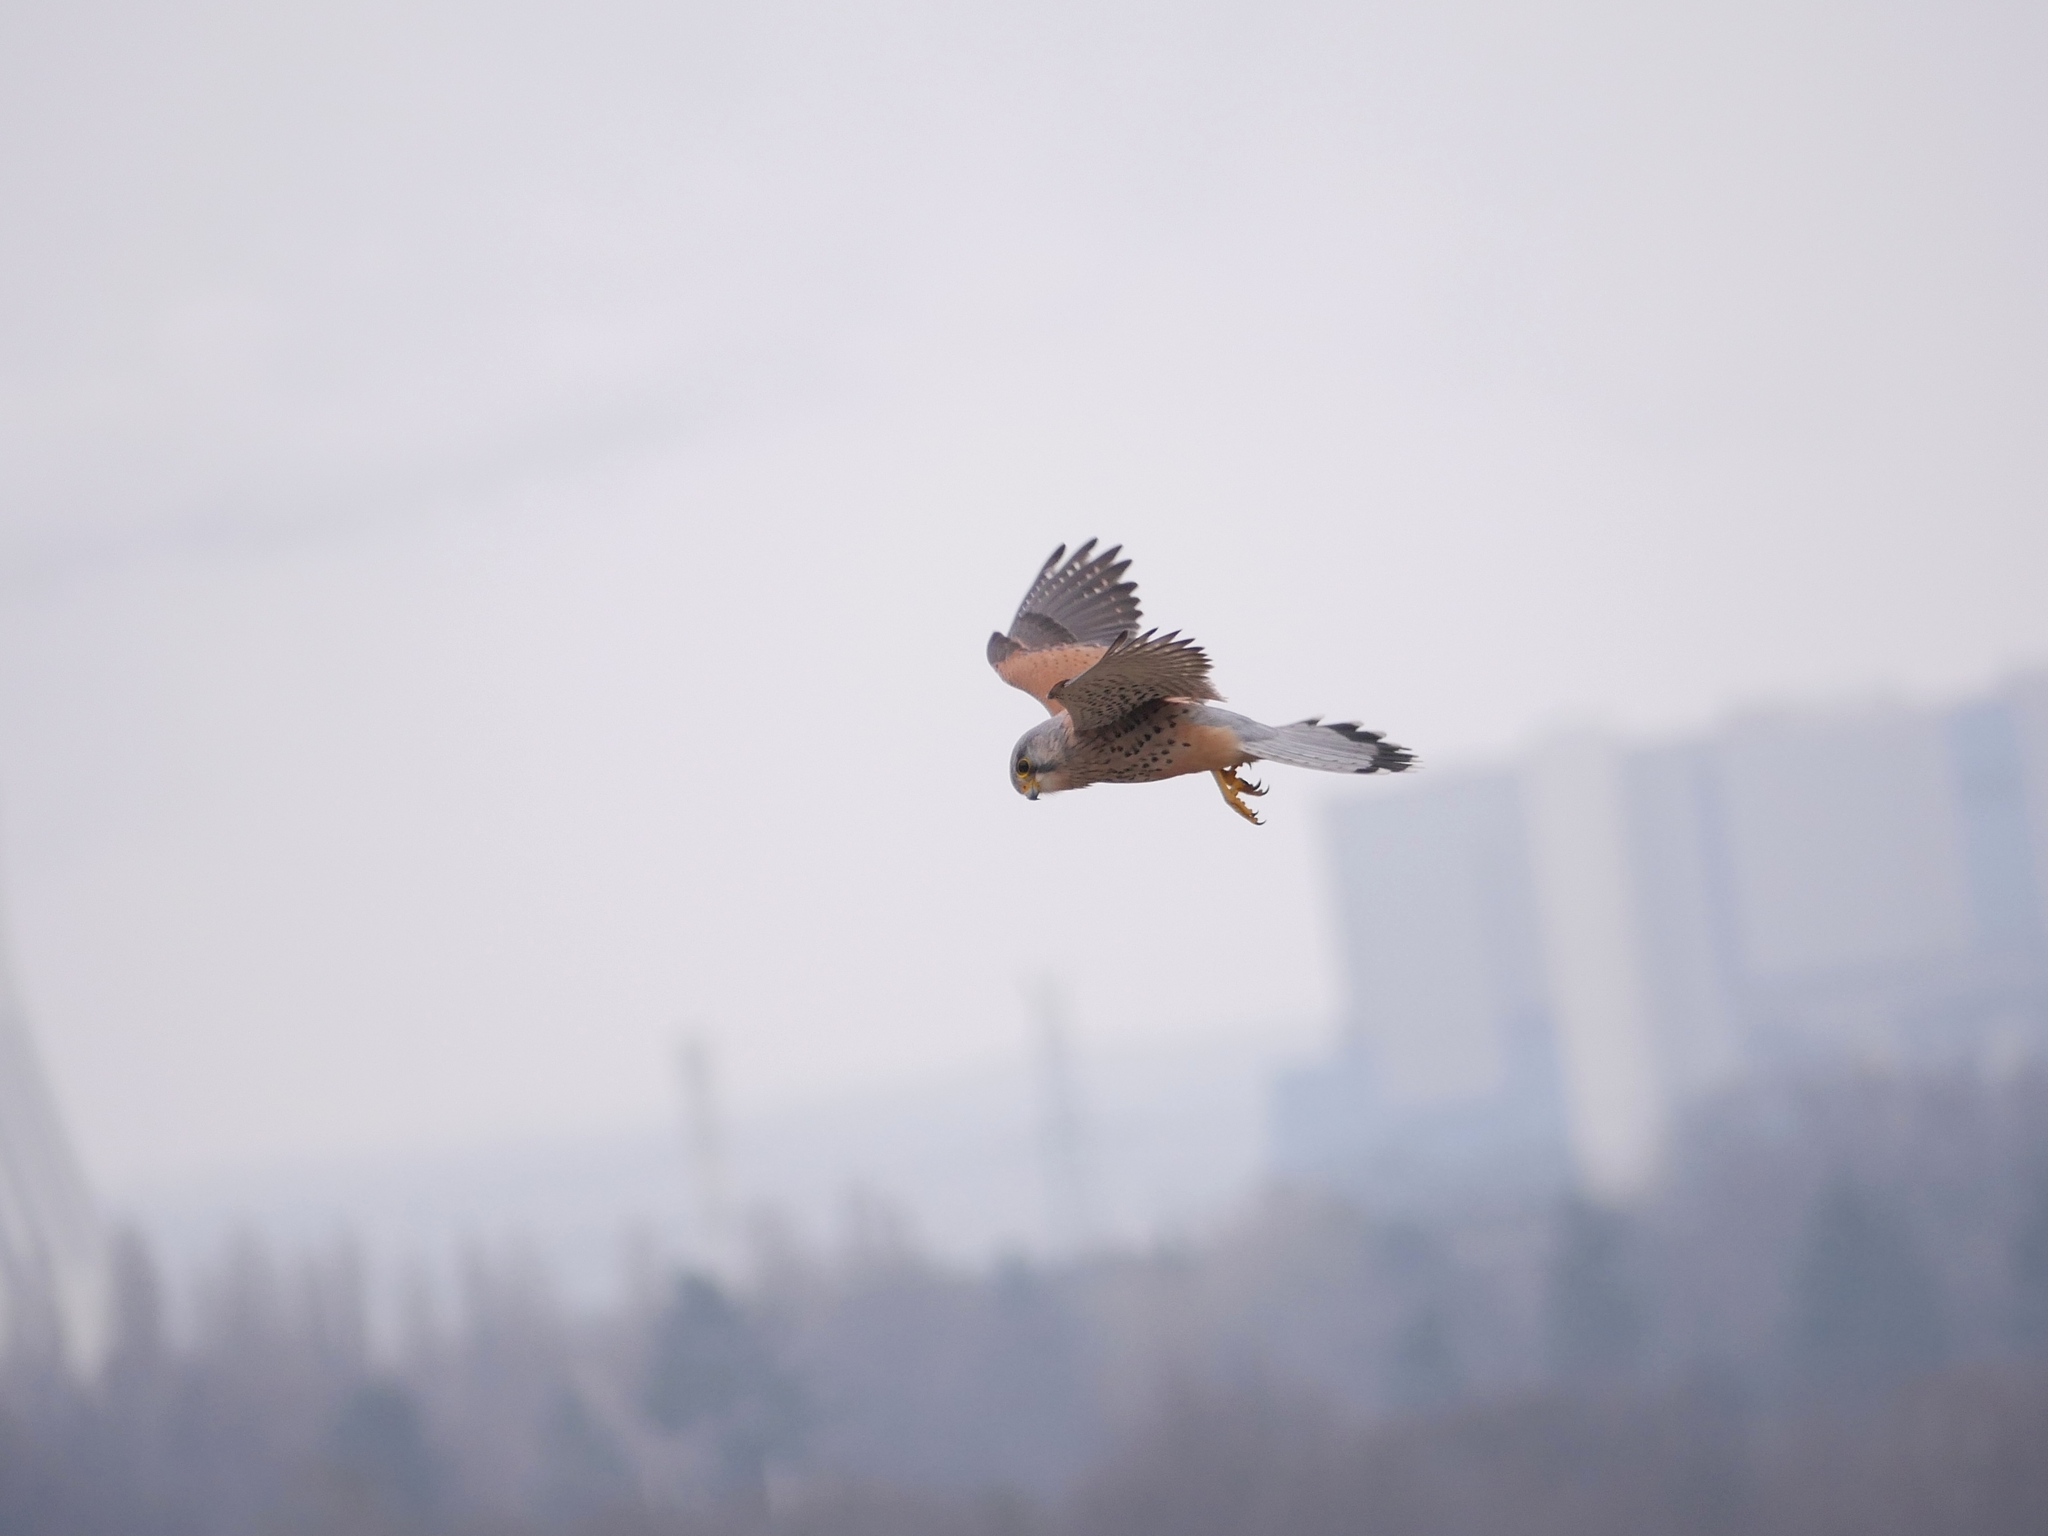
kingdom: Animalia
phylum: Chordata
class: Aves
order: Falconiformes
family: Falconidae
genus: Falco
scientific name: Falco tinnunculus
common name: Common kestrel
